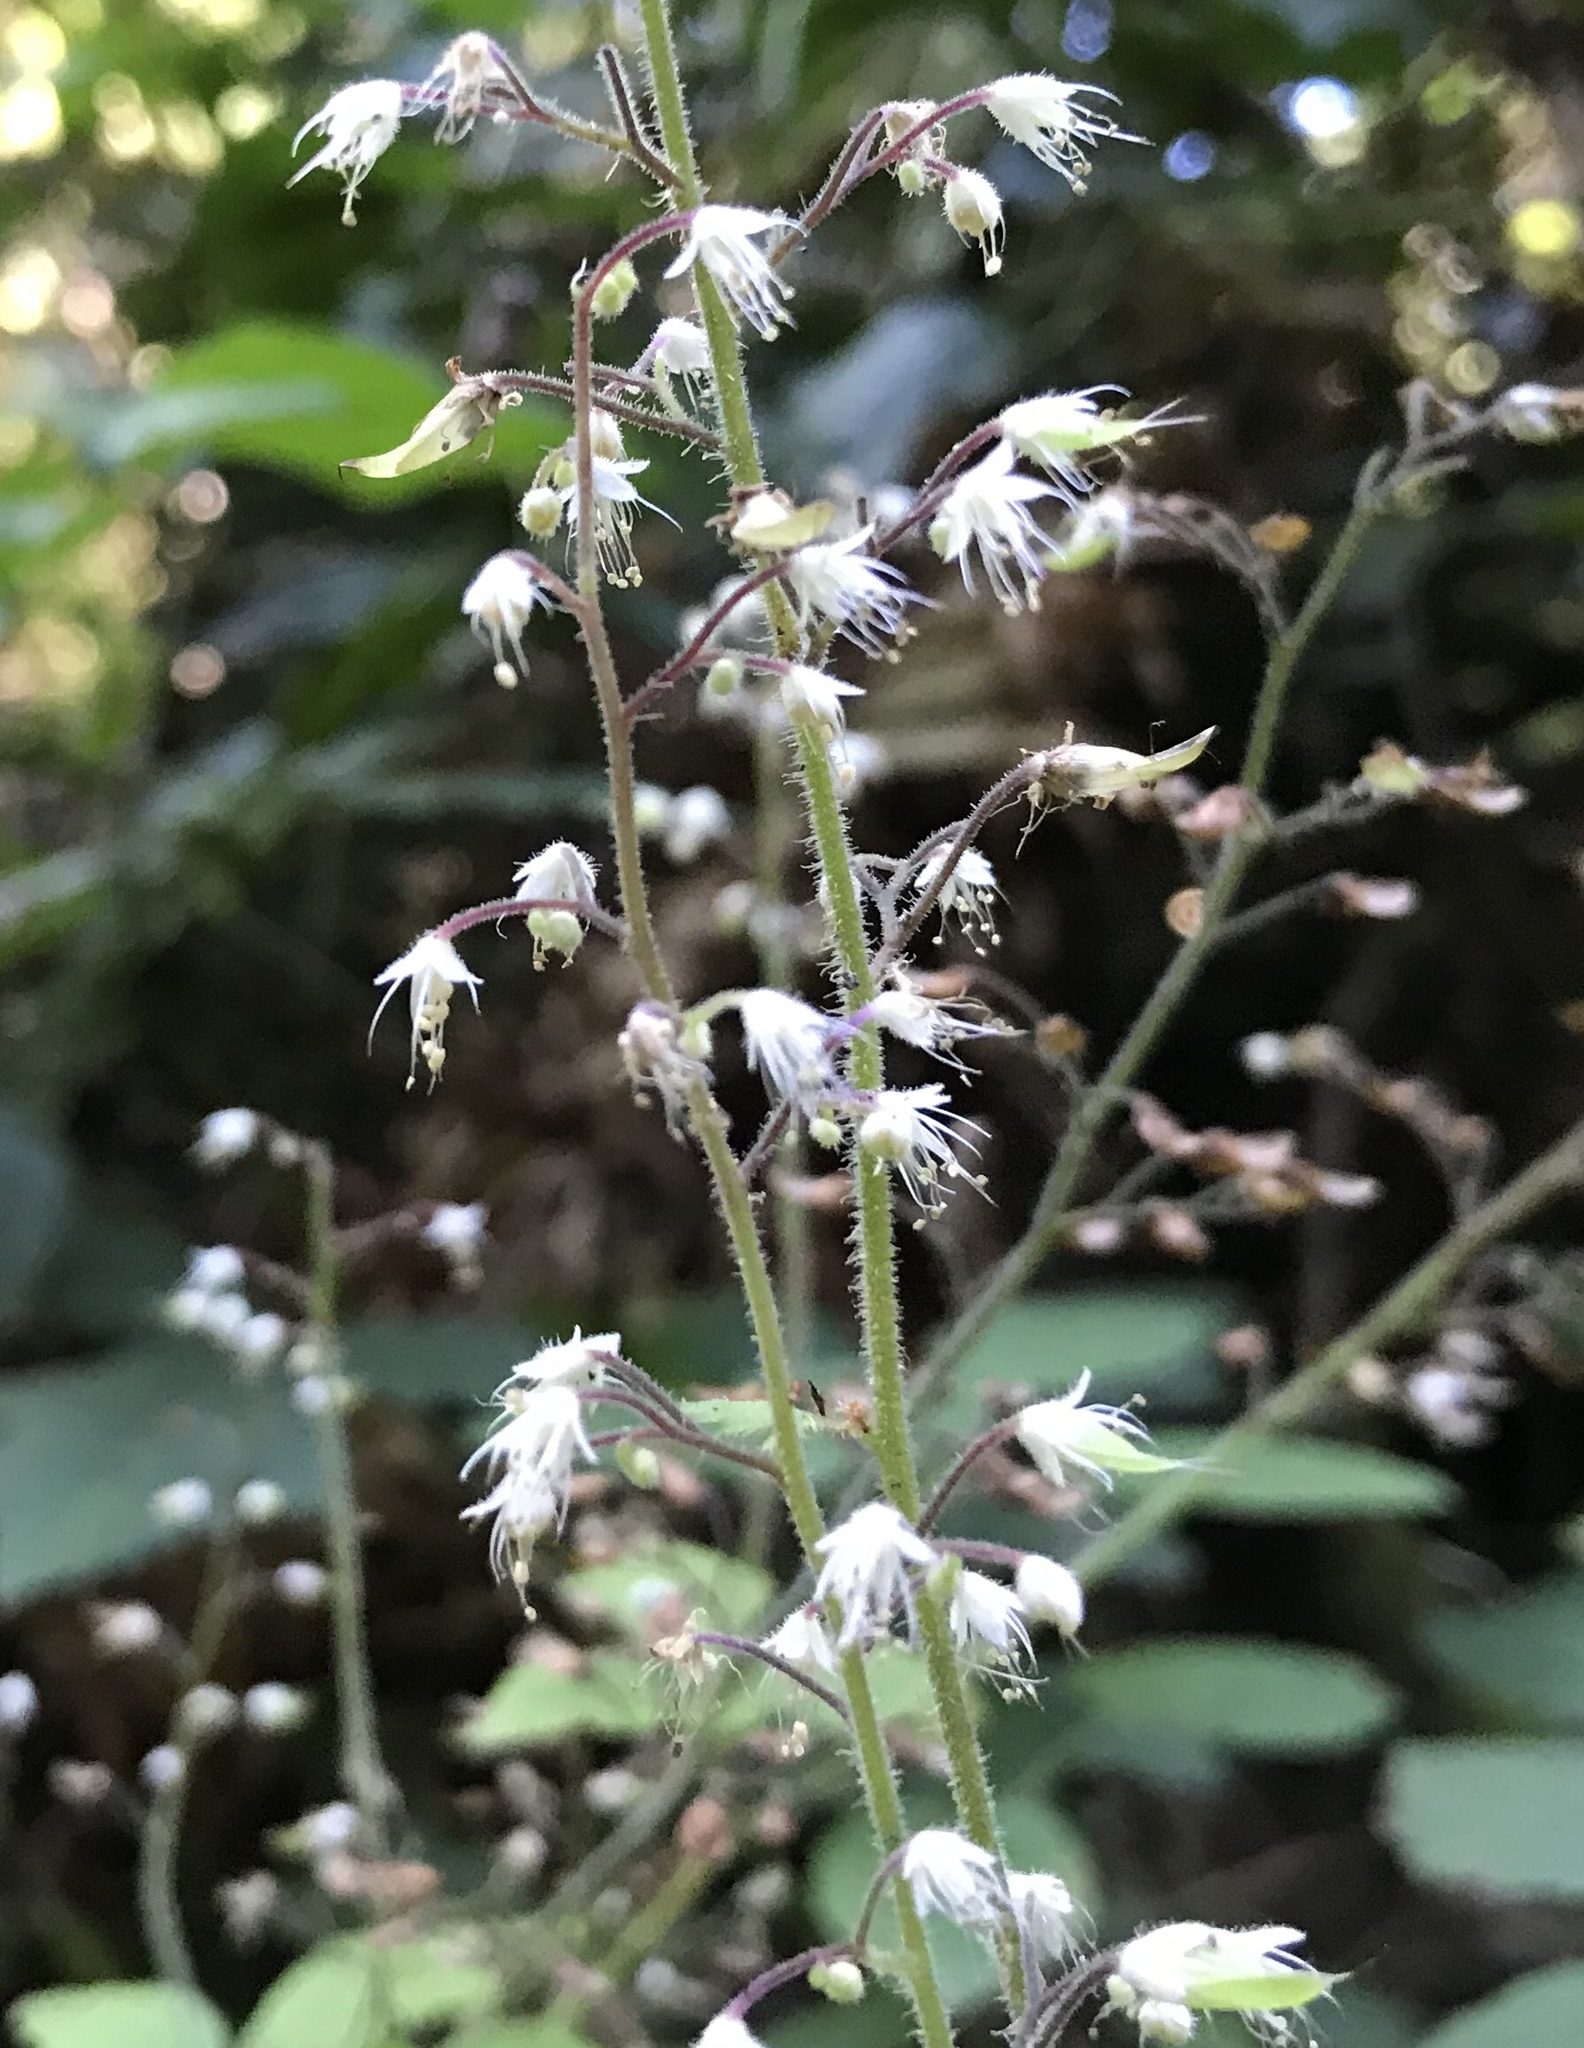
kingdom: Plantae
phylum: Tracheophyta
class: Magnoliopsida
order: Saxifragales
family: Saxifragaceae
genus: Tiarella
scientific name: Tiarella trifoliata
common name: Sugar-scoop
